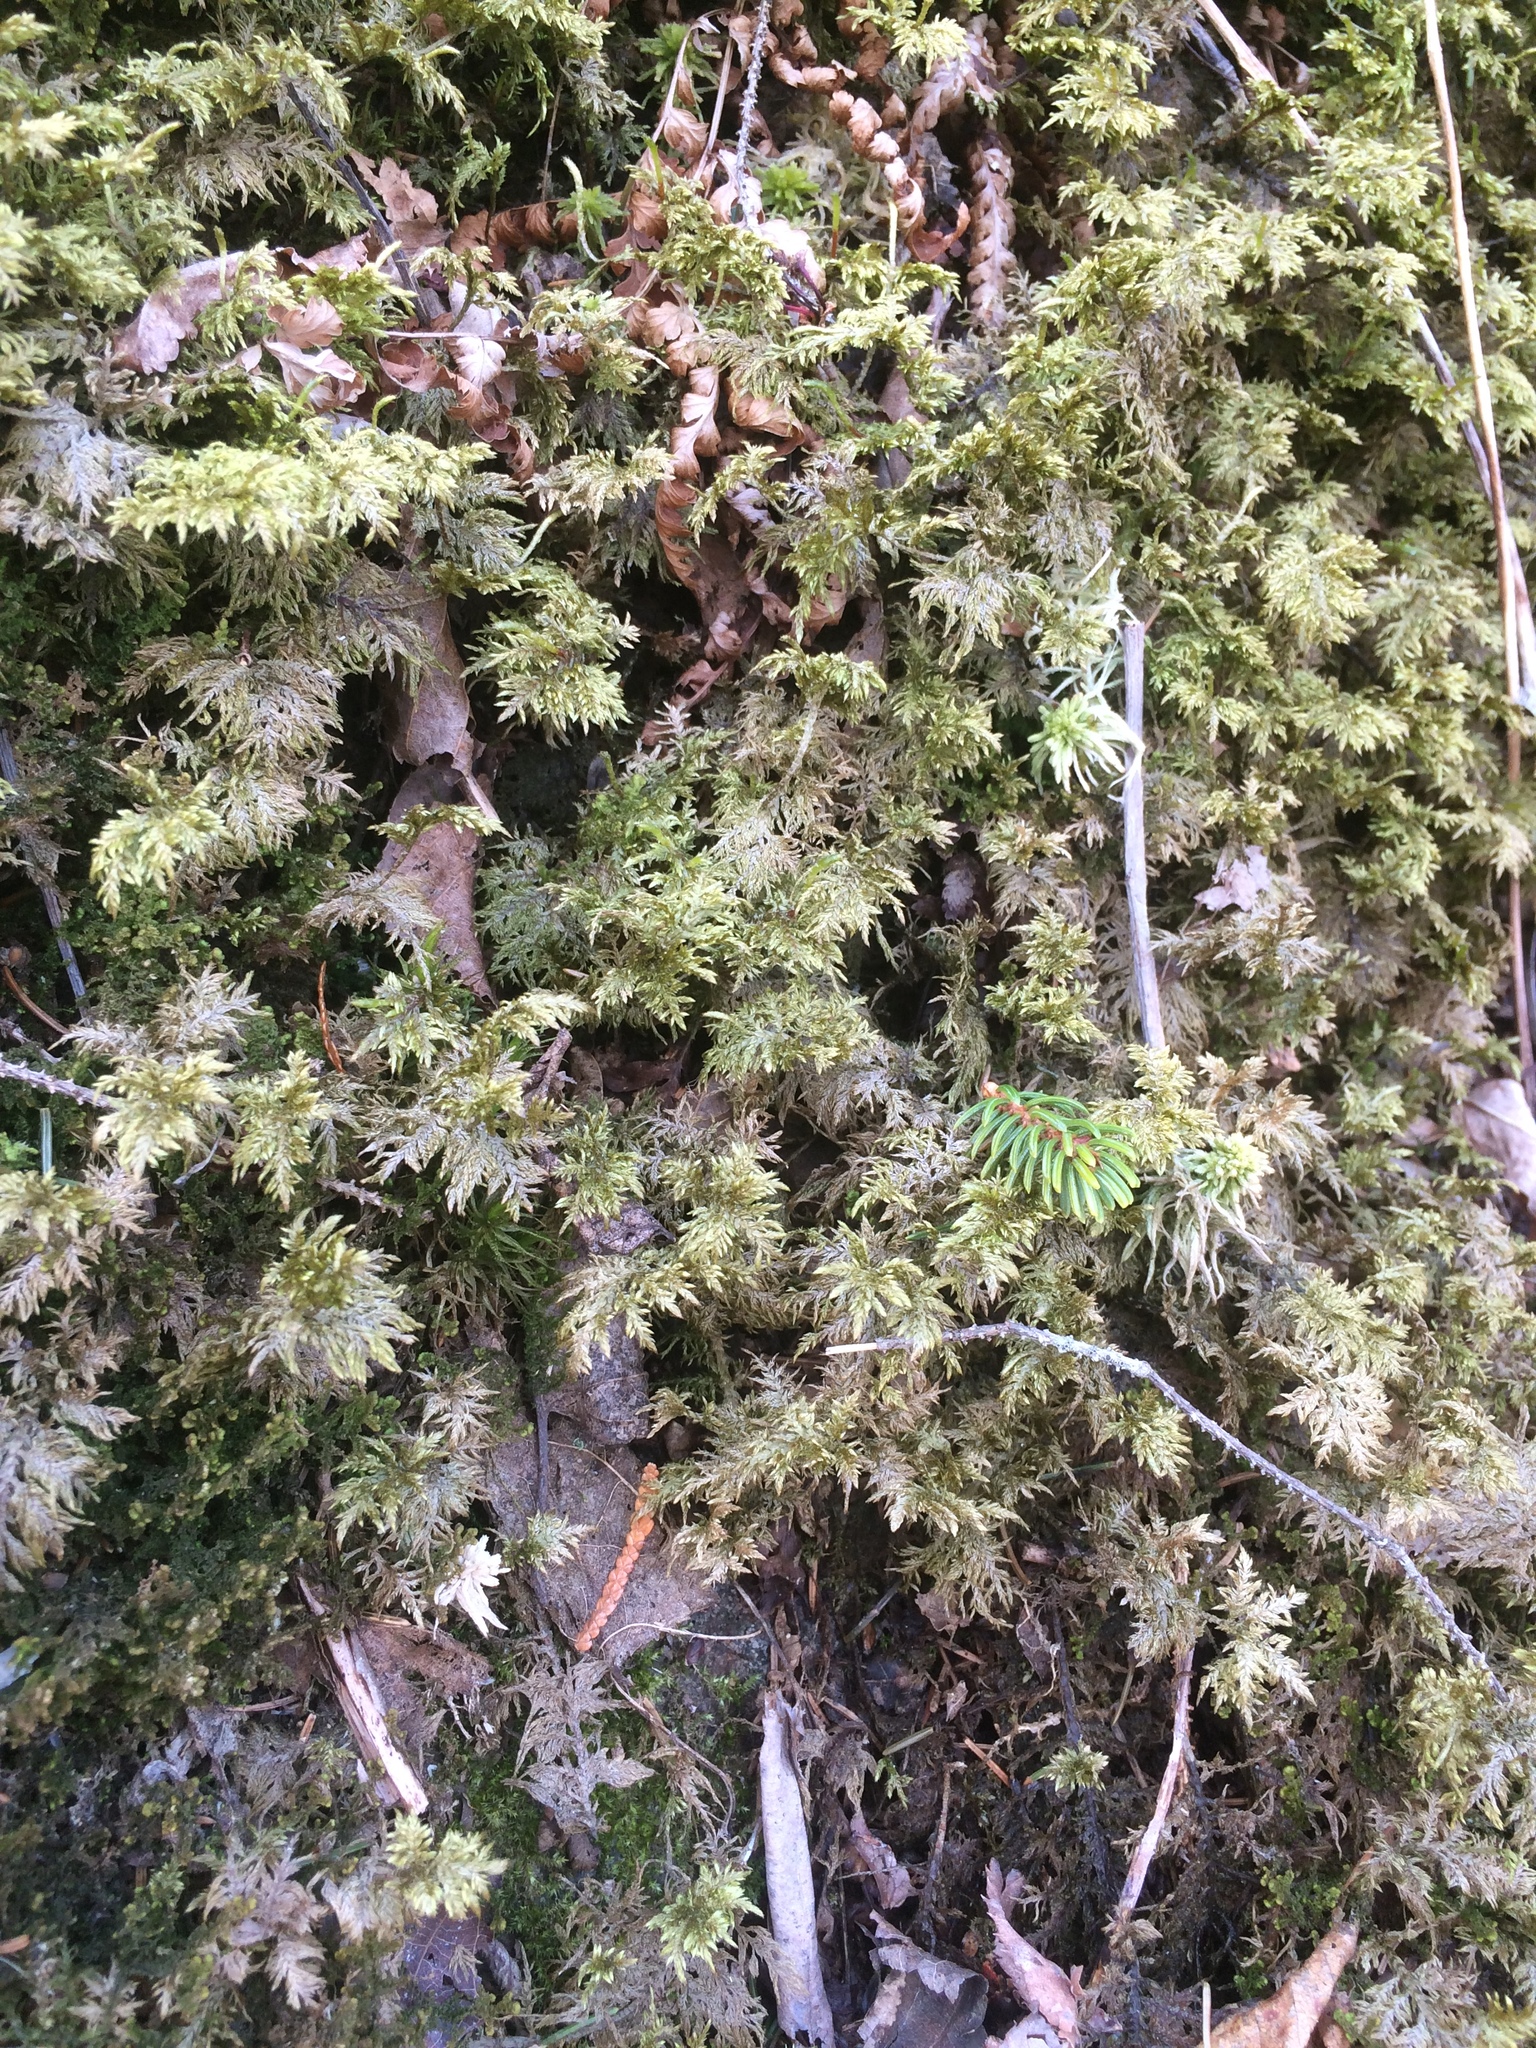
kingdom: Plantae
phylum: Bryophyta
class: Bryopsida
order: Hypnales
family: Hylocomiaceae
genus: Hylocomium
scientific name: Hylocomium splendens
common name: Stairstep moss
